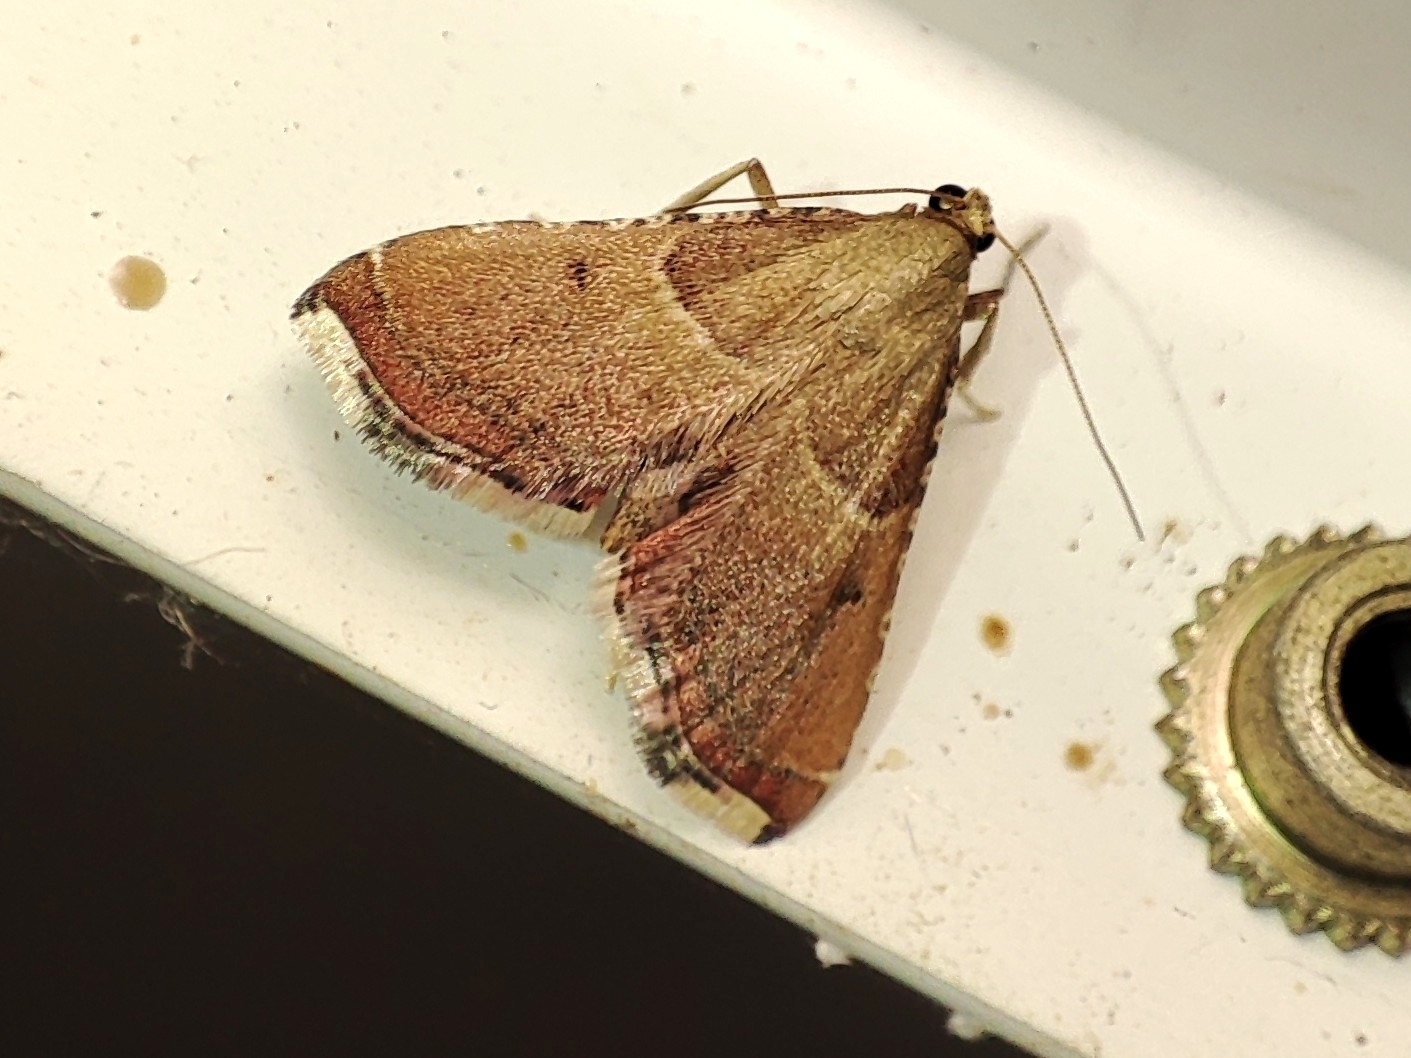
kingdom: Animalia
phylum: Arthropoda
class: Insecta
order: Lepidoptera
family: Pyralidae
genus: Endotricha
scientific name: Endotricha flammealis
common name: Rosy tabby
